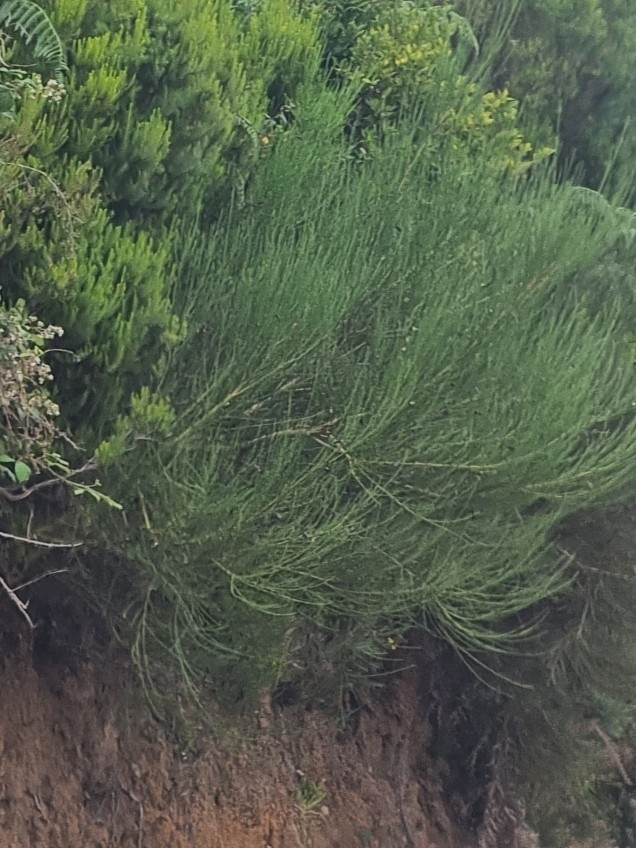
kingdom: Plantae
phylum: Tracheophyta
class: Magnoliopsida
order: Fabales
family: Fabaceae
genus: Cytisus
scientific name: Cytisus scoparius
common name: Scotch broom
